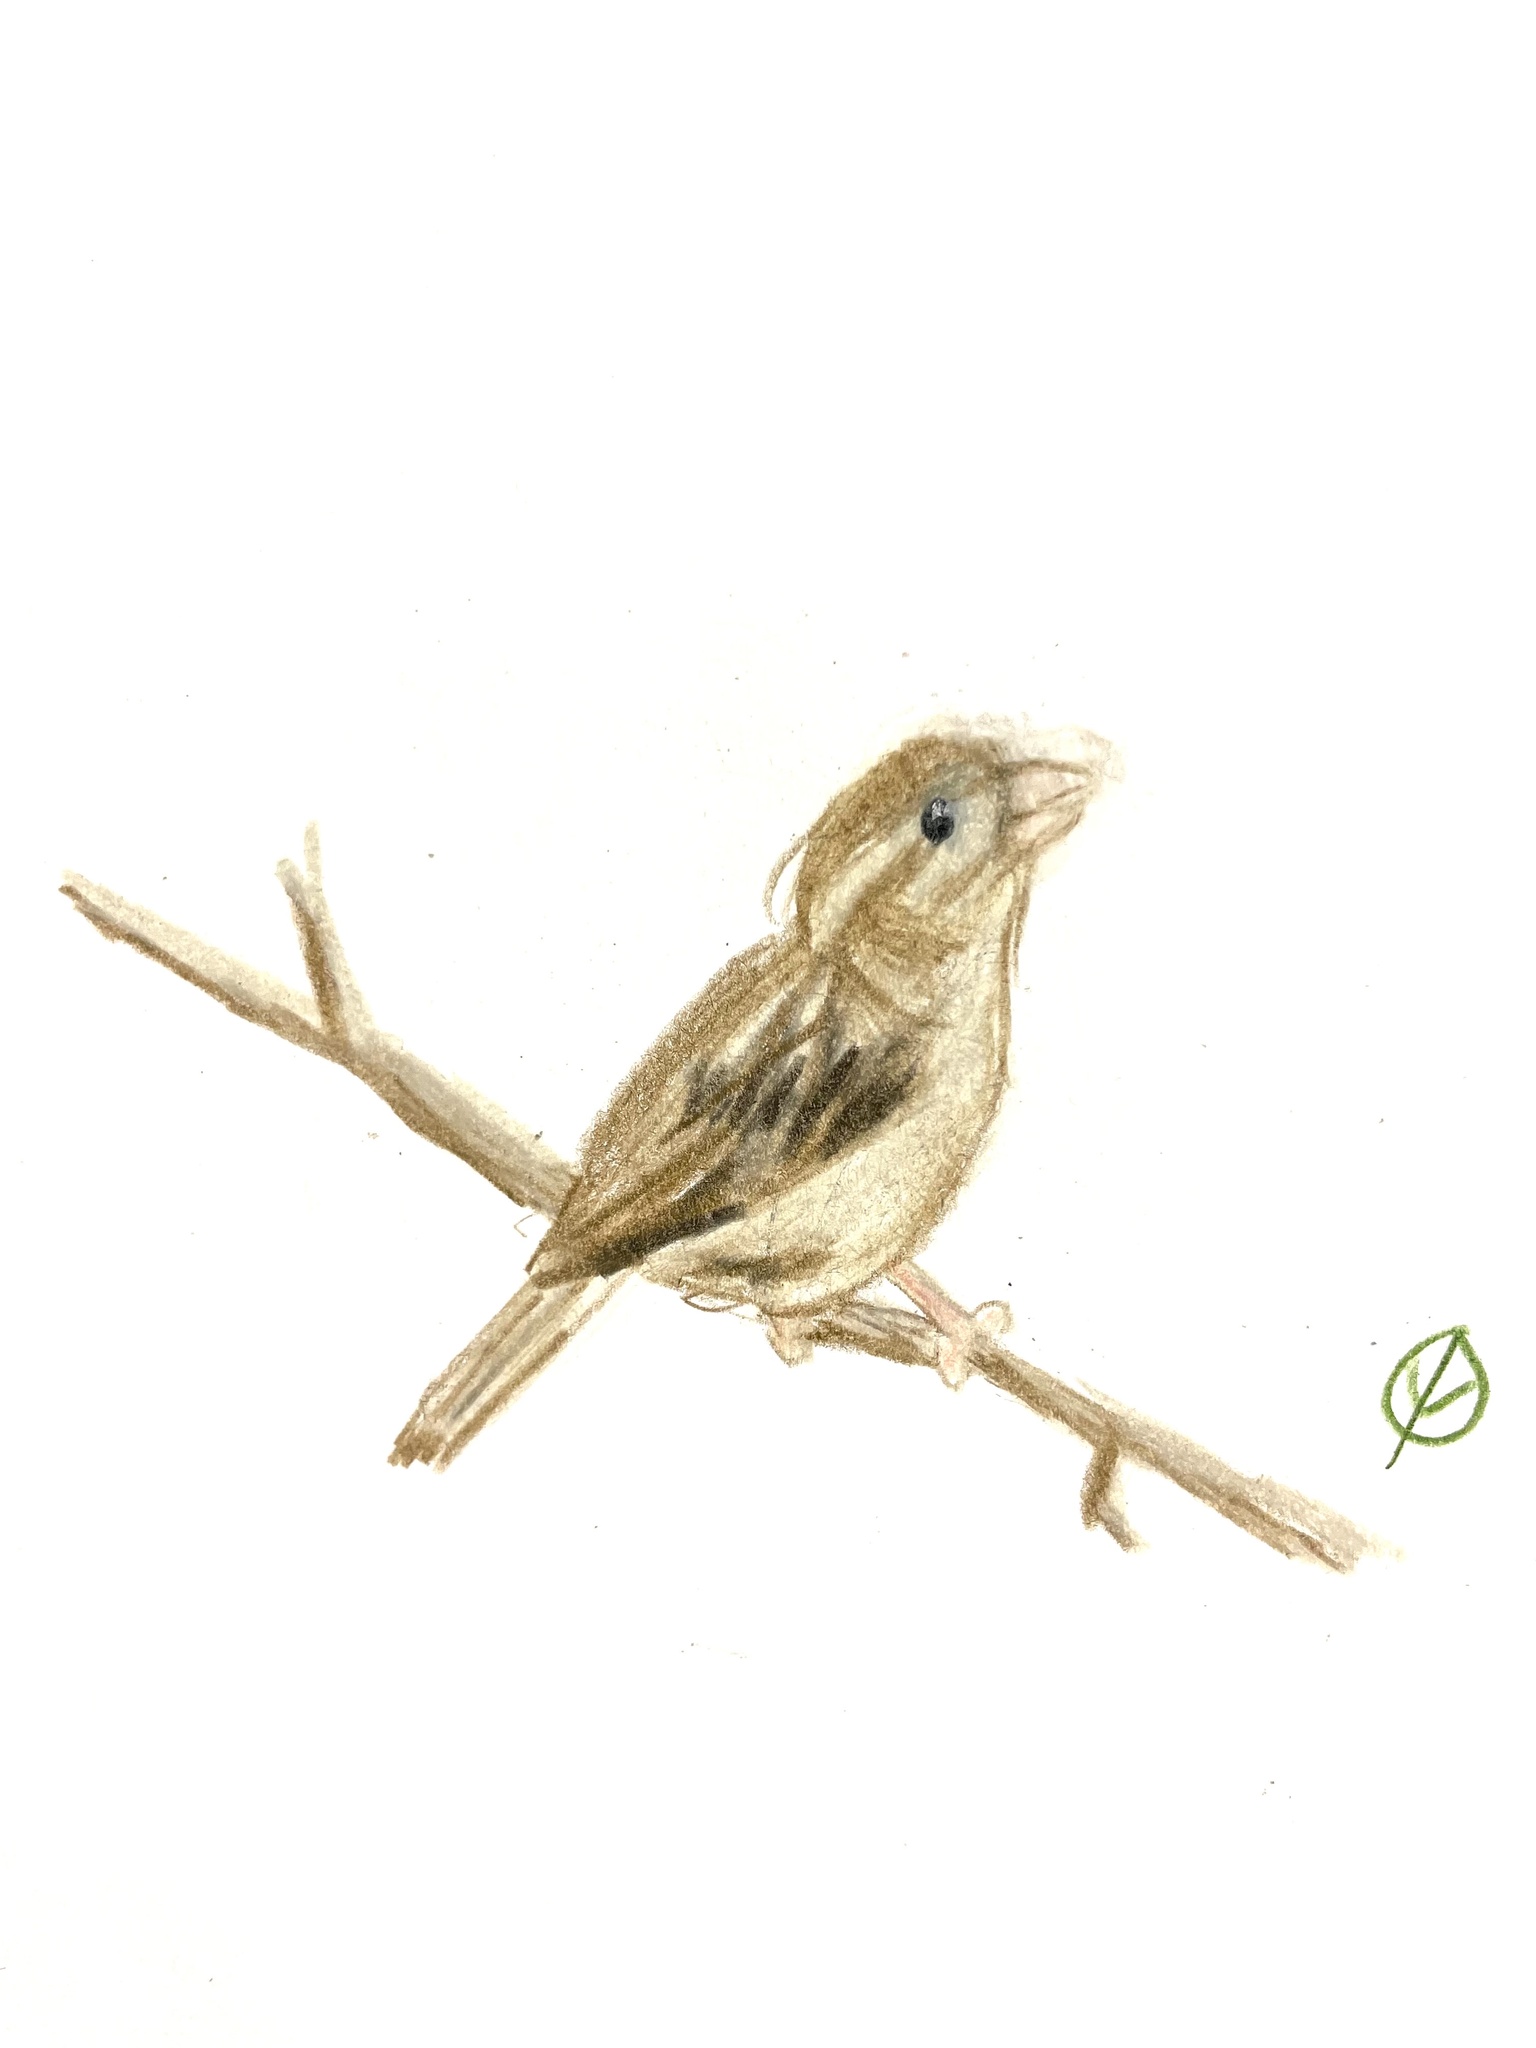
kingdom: Animalia
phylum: Chordata
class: Aves
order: Passeriformes
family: Passeridae
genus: Passer
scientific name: Passer domesticus
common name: House sparrow
